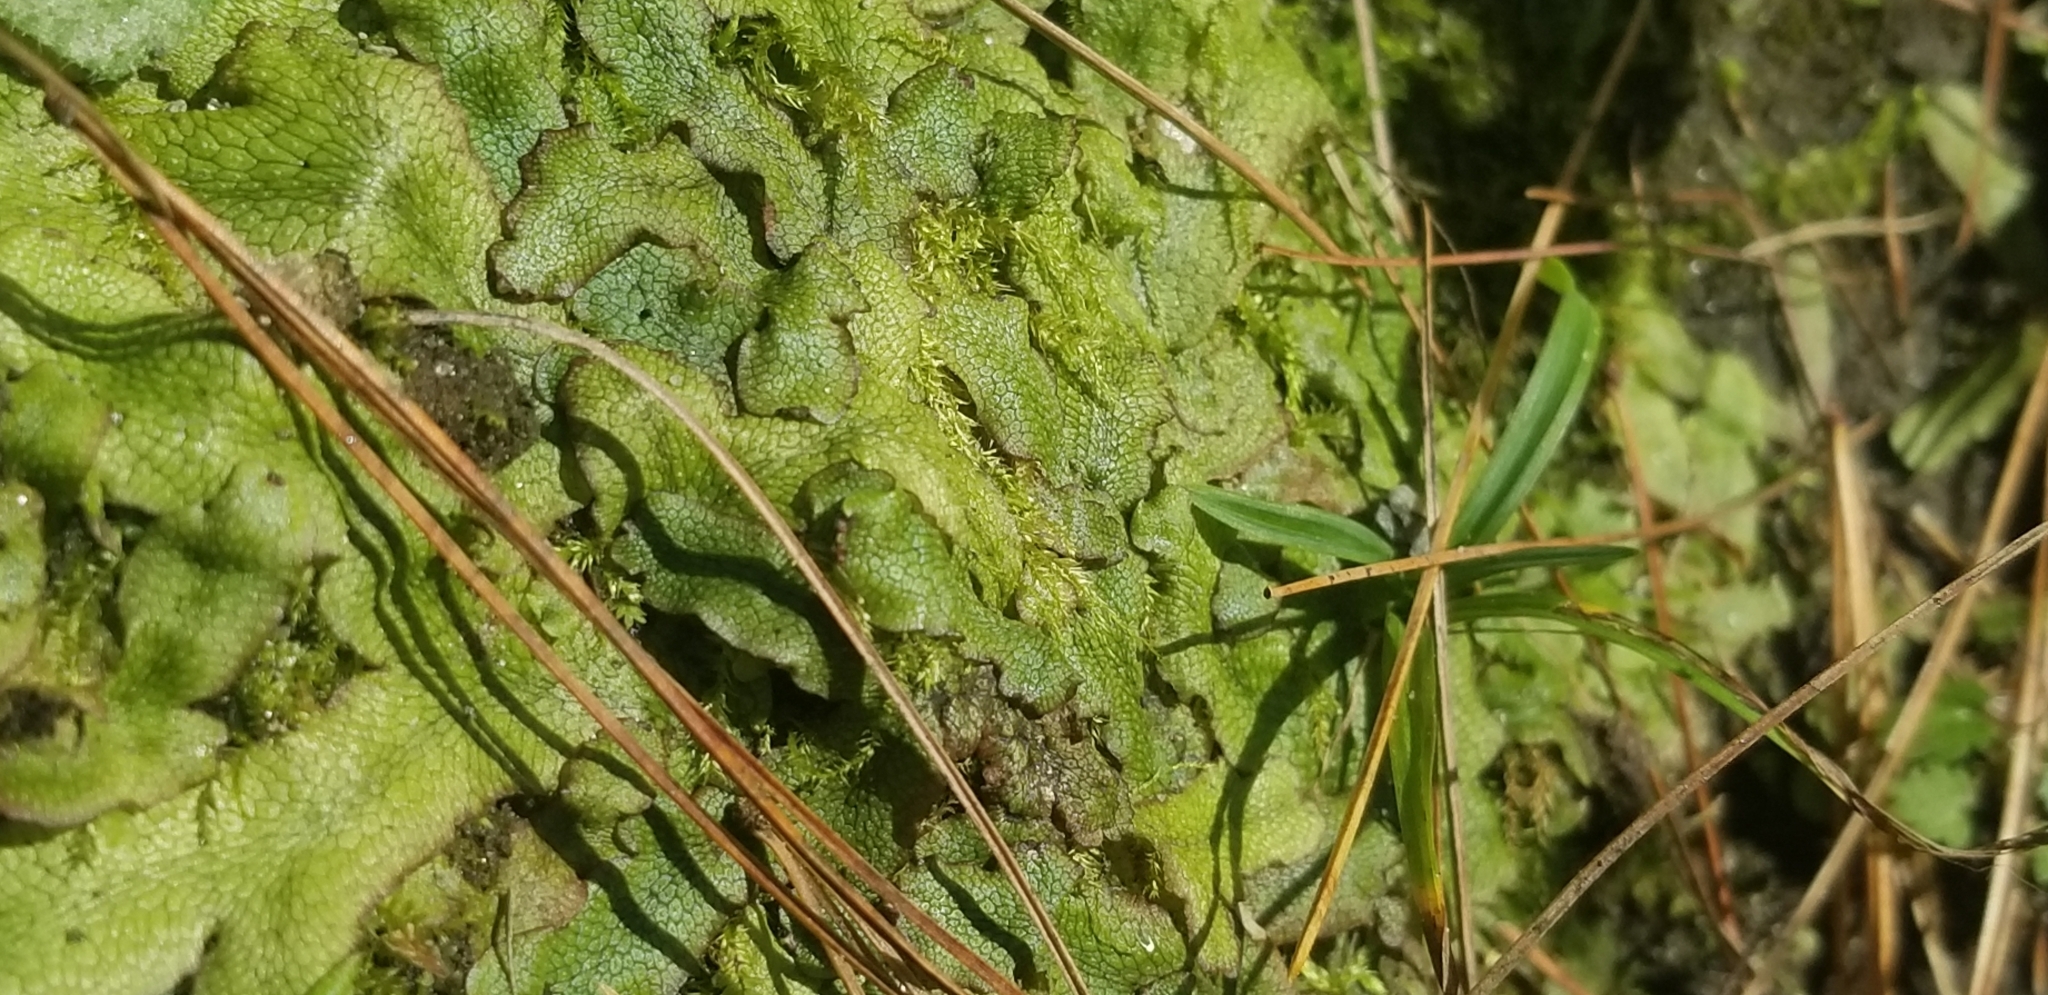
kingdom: Plantae
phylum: Marchantiophyta
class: Marchantiopsida
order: Marchantiales
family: Conocephalaceae
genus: Conocephalum
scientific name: Conocephalum salebrosum
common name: Cat-tongue liverwort
